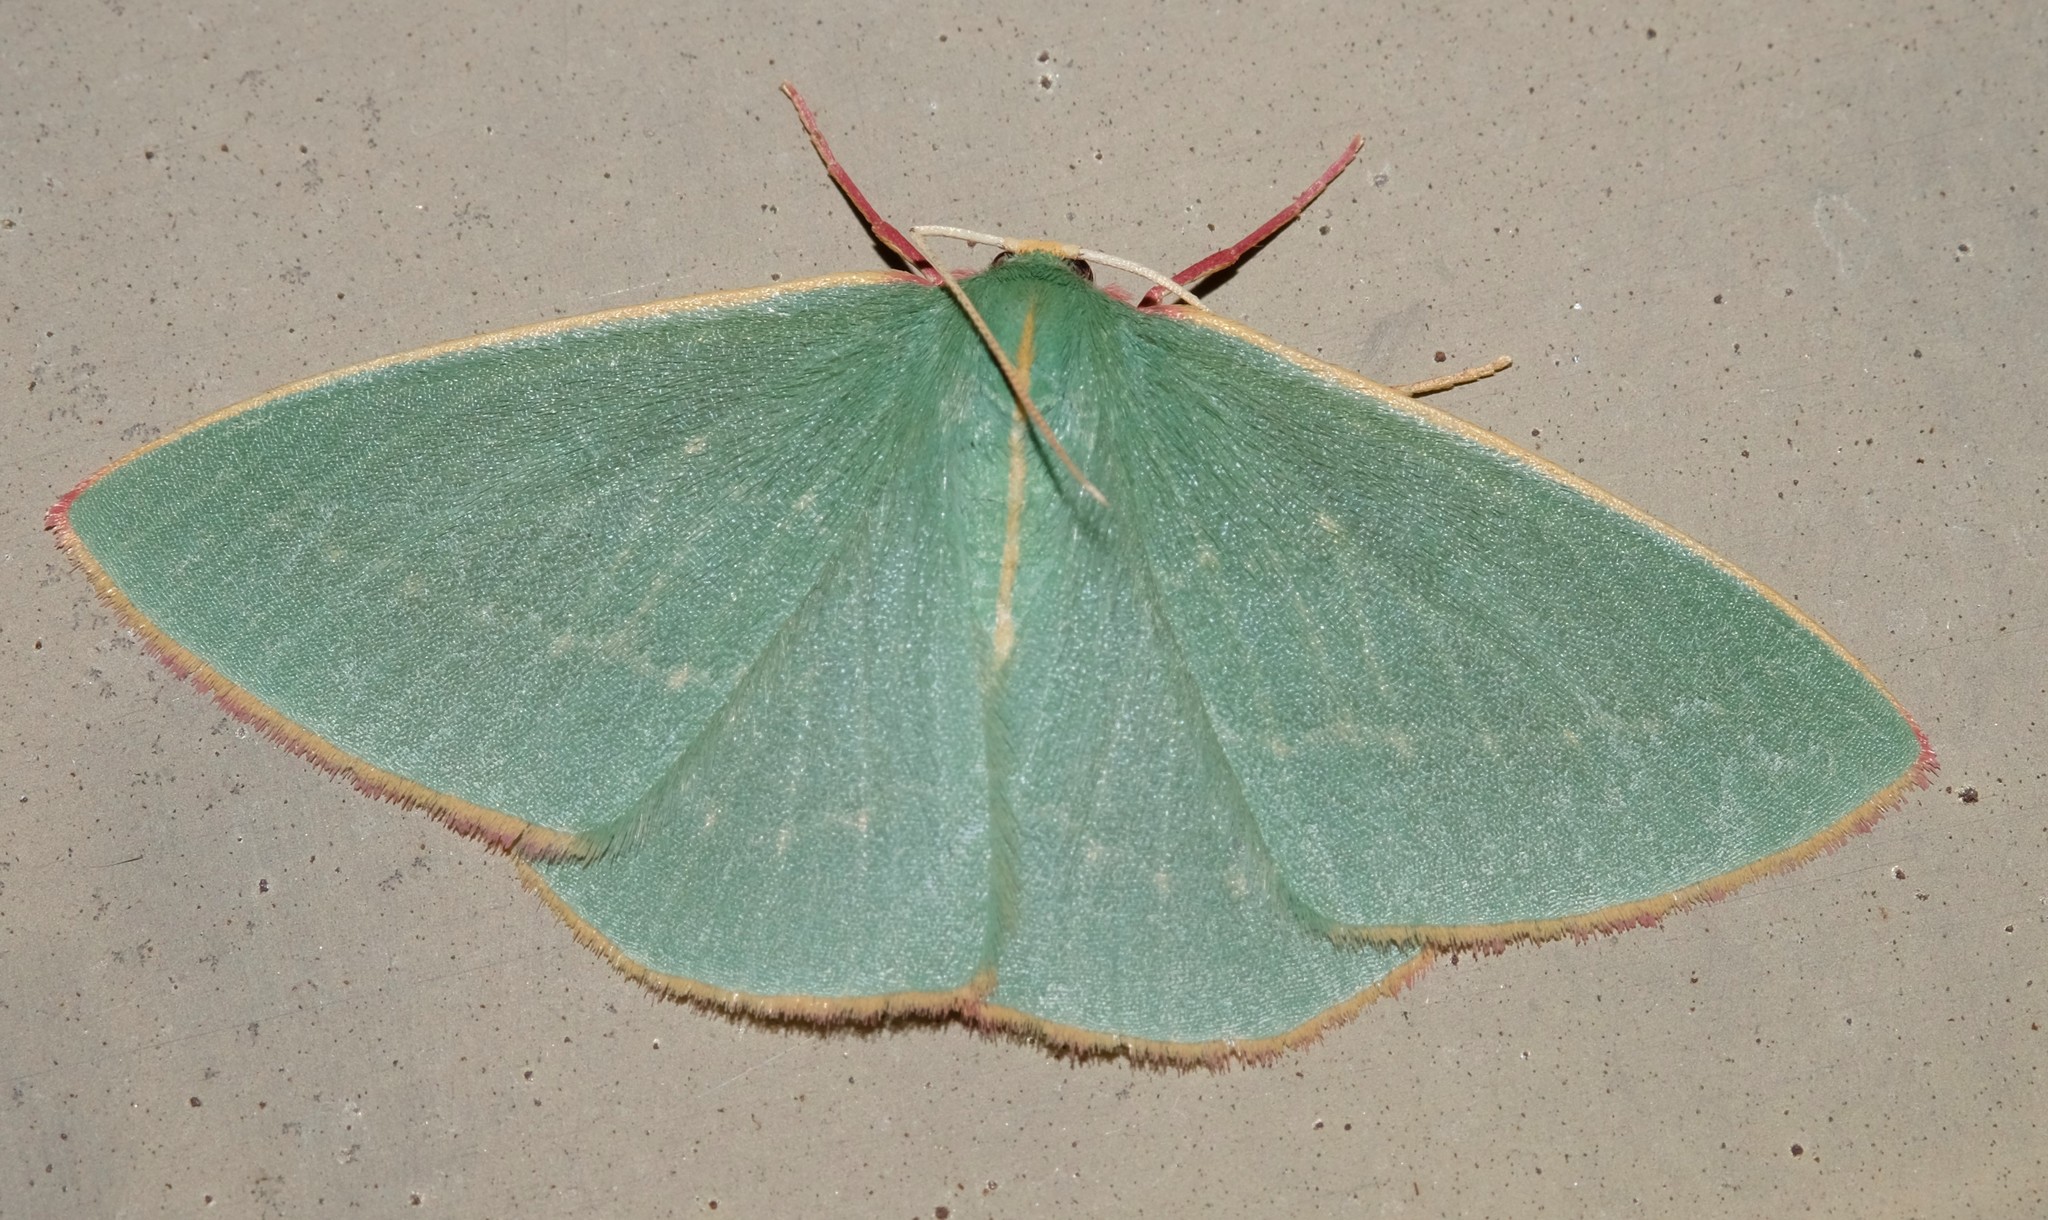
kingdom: Animalia
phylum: Arthropoda
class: Insecta
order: Lepidoptera
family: Geometridae
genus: Chlorocoma
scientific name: Chlorocoma dichloraria
